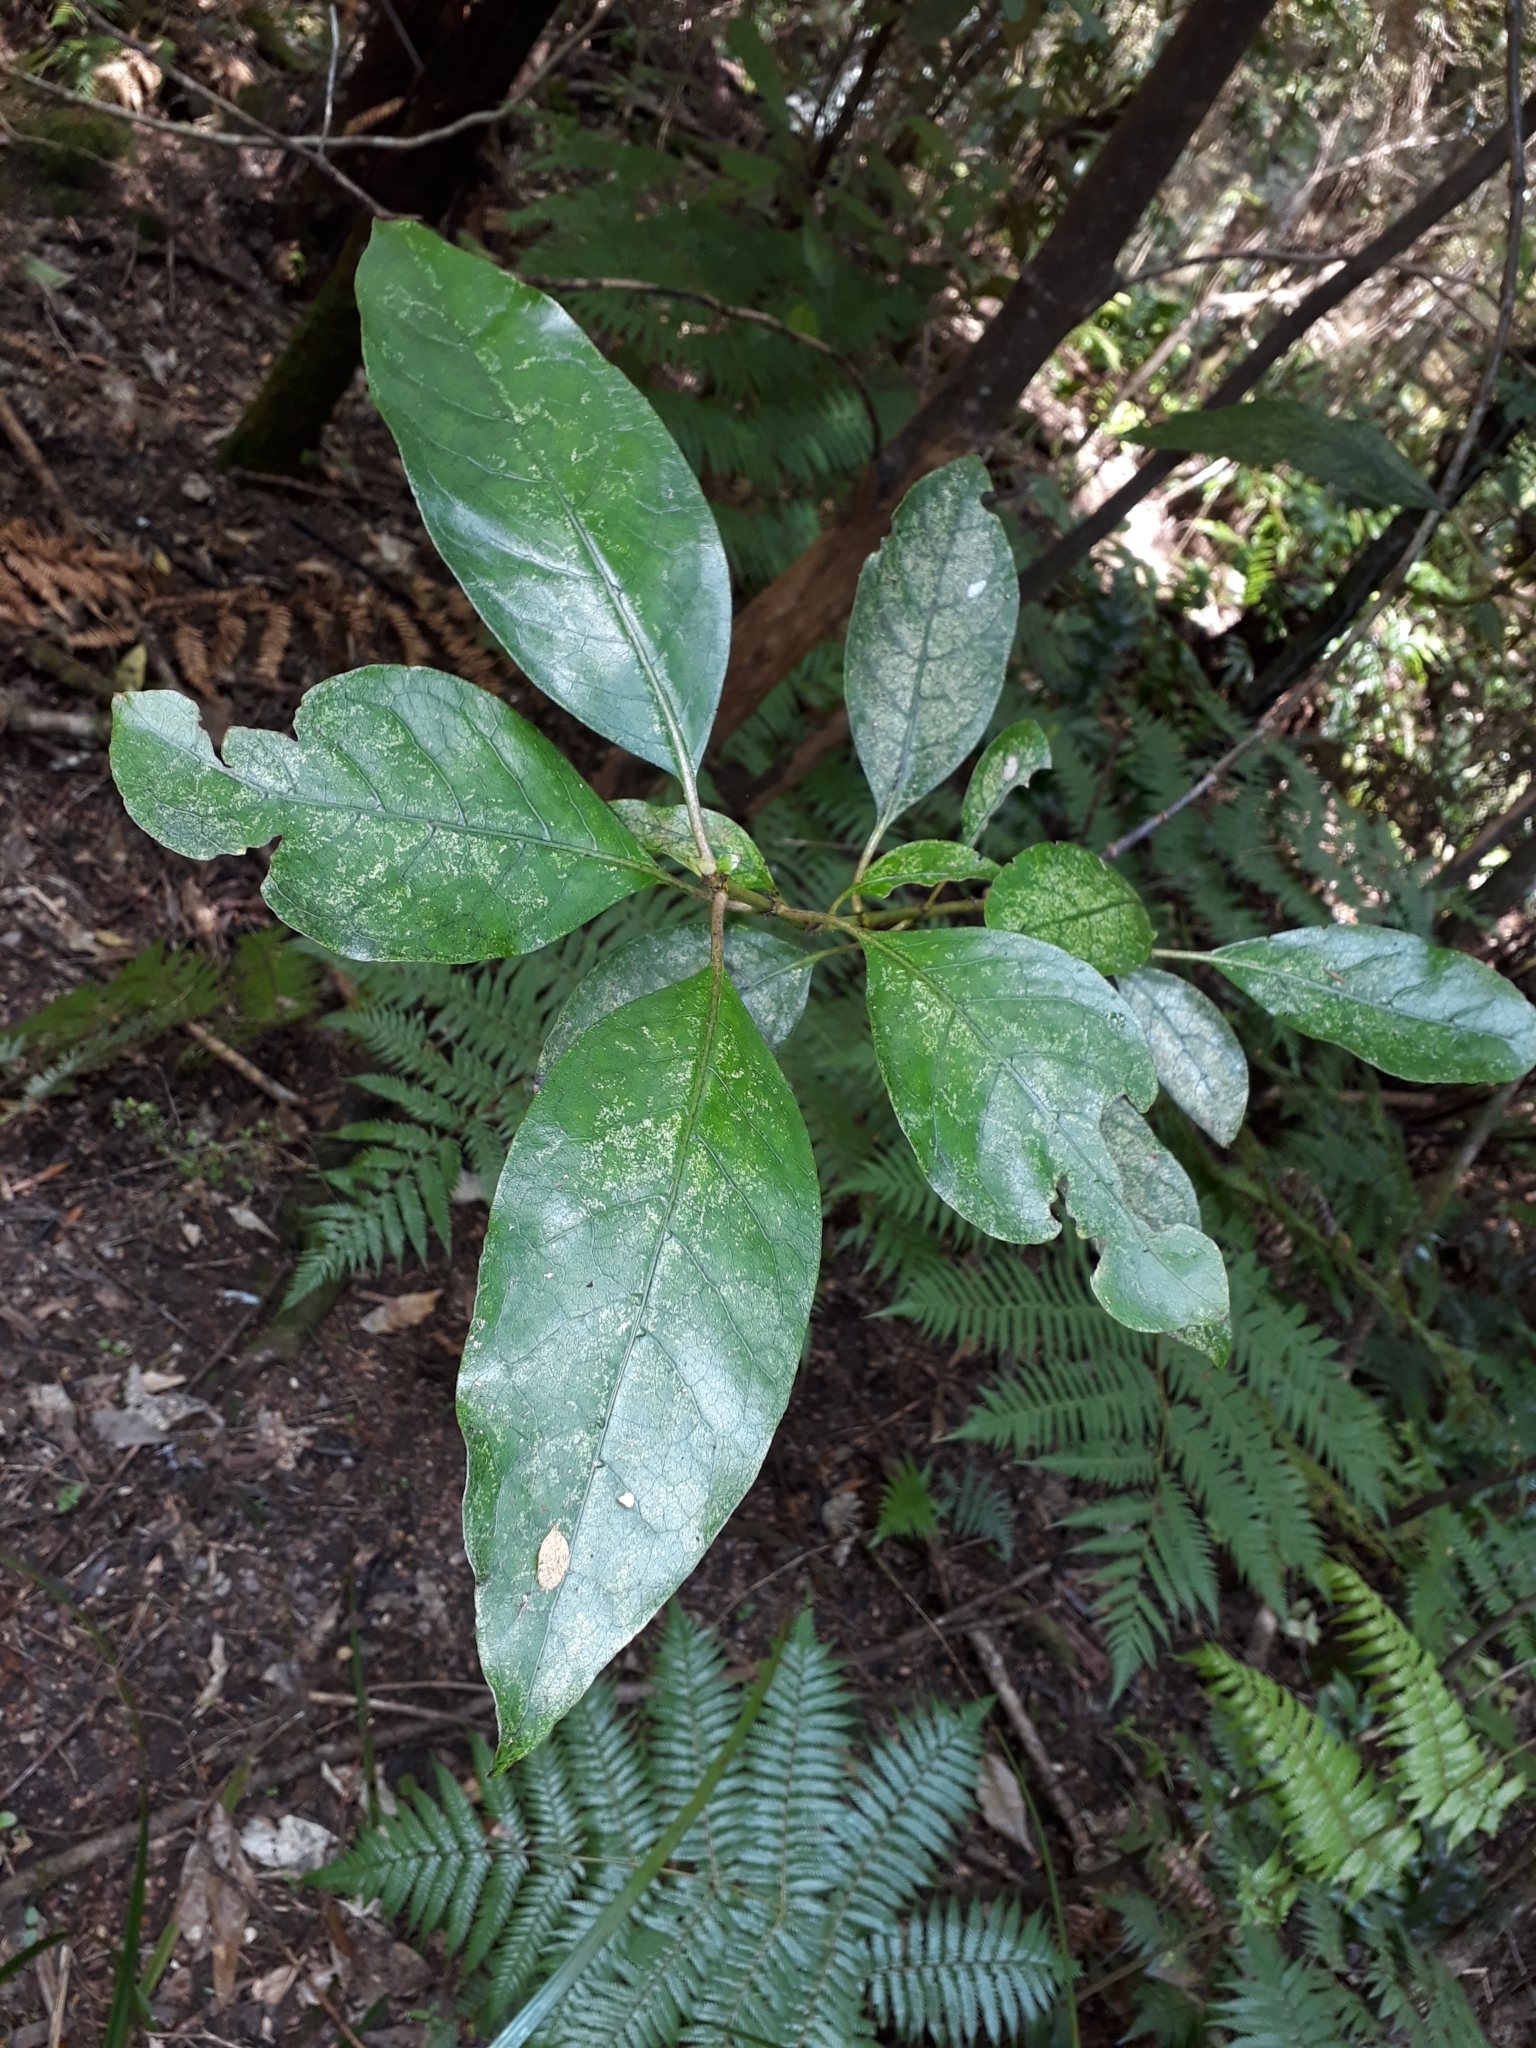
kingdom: Plantae
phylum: Tracheophyta
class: Magnoliopsida
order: Gentianales
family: Rubiaceae
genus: Coprosma
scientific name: Coprosma autumnalis
